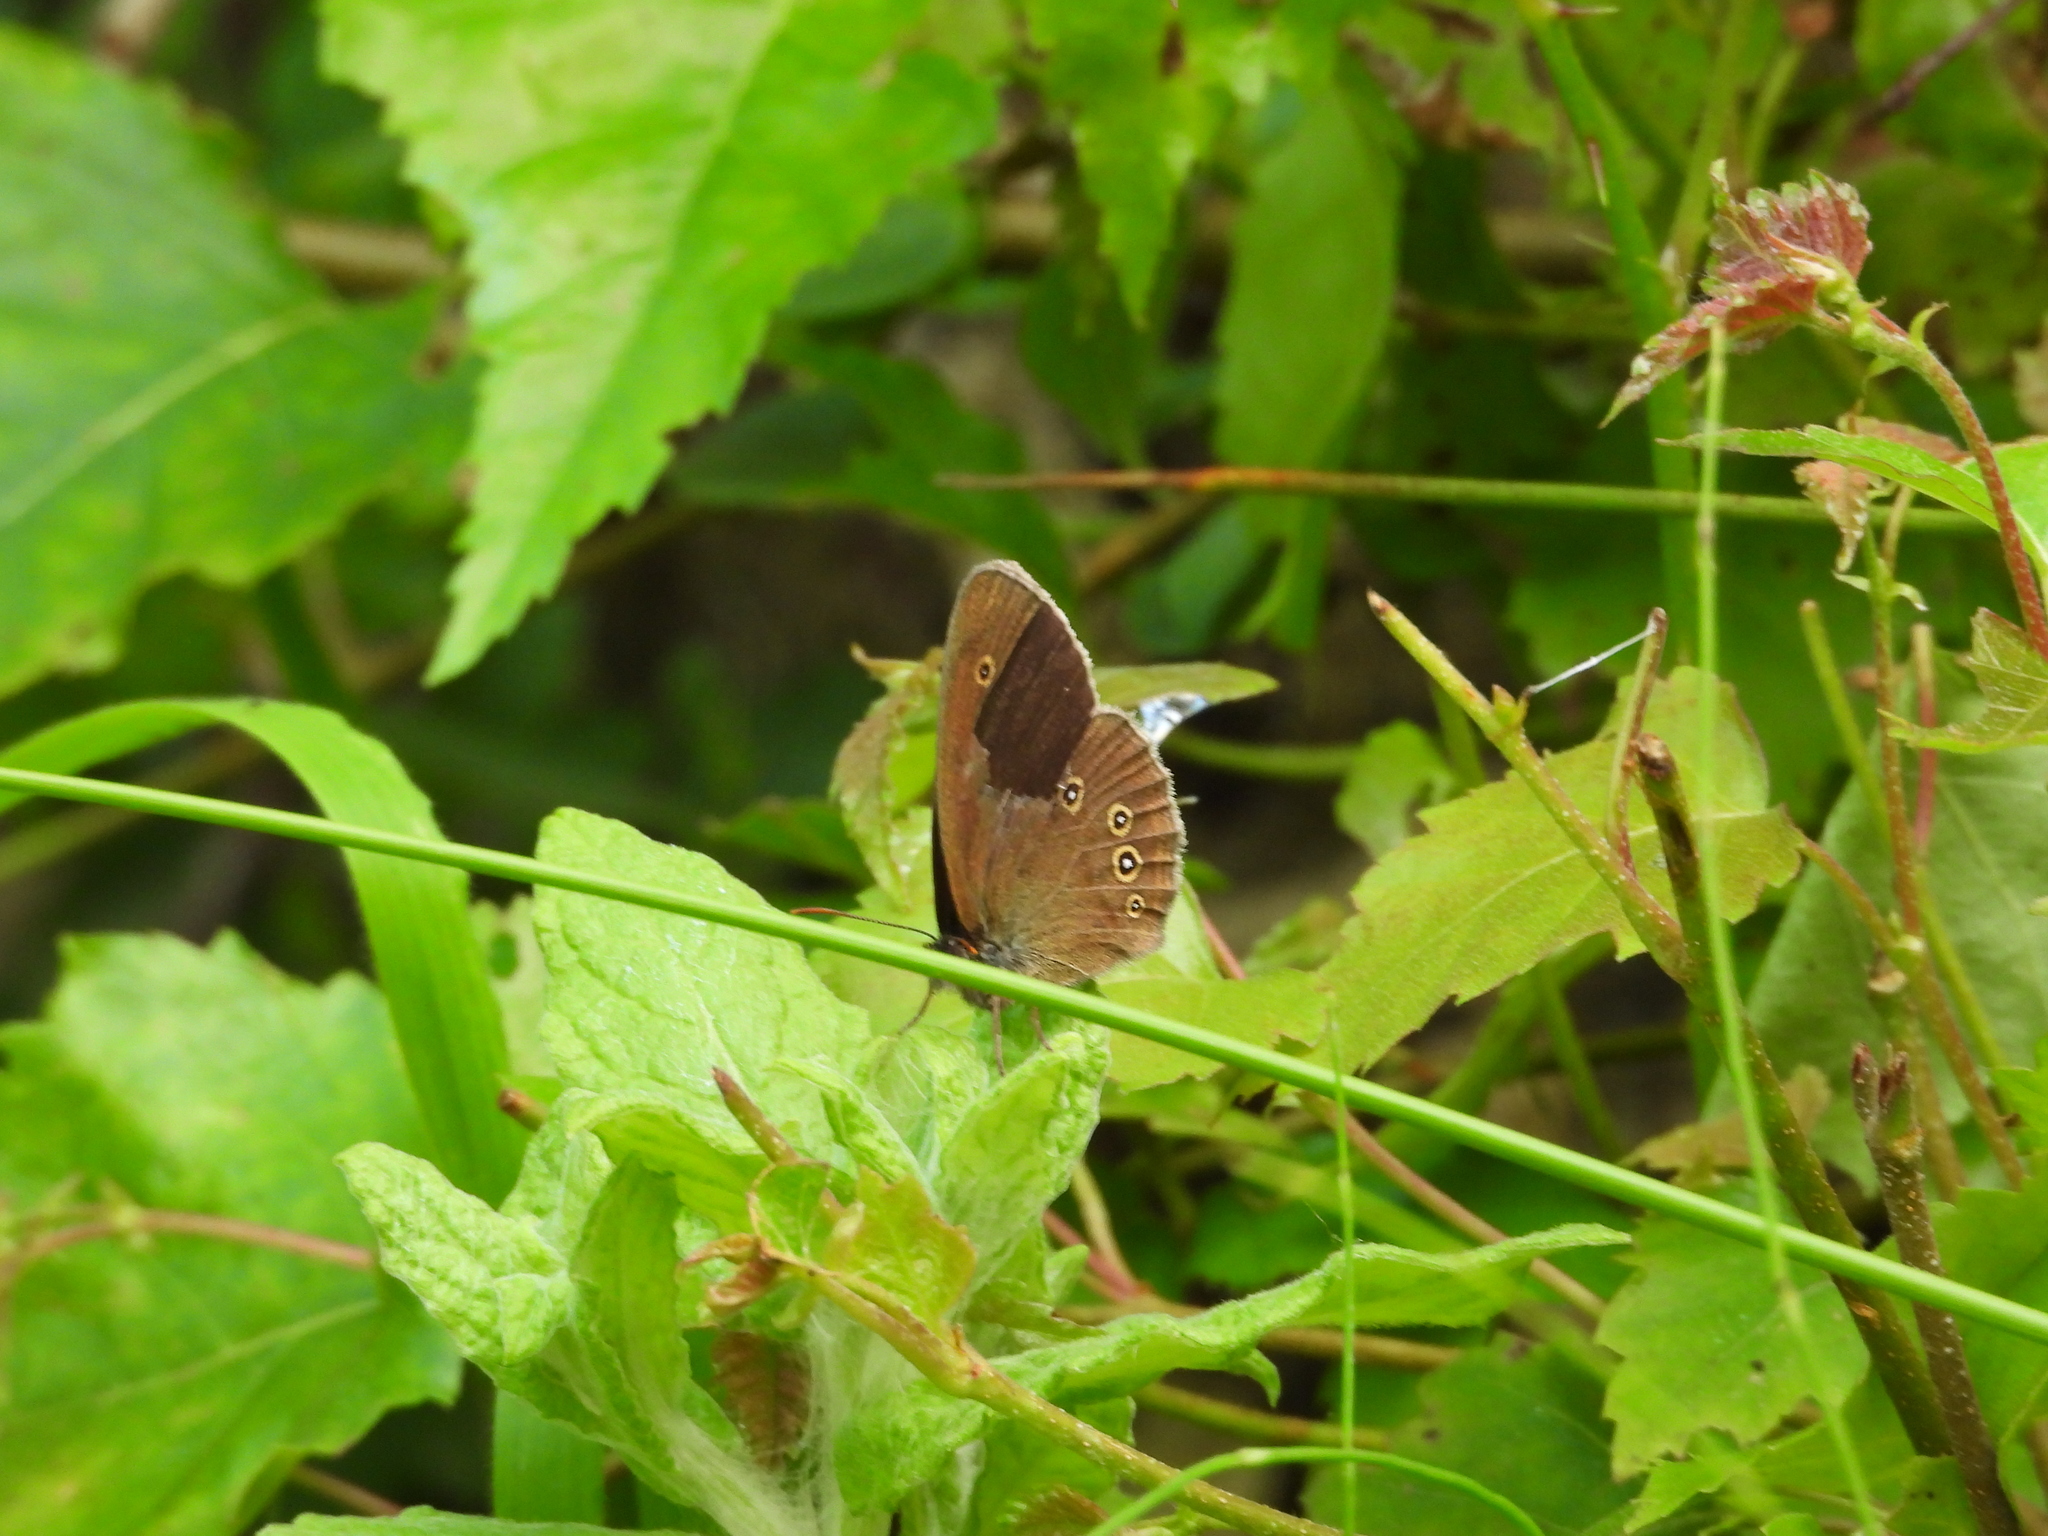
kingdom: Animalia
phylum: Arthropoda
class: Insecta
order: Lepidoptera
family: Nymphalidae
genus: Aphantopus
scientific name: Aphantopus hyperantus
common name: Ringlet
